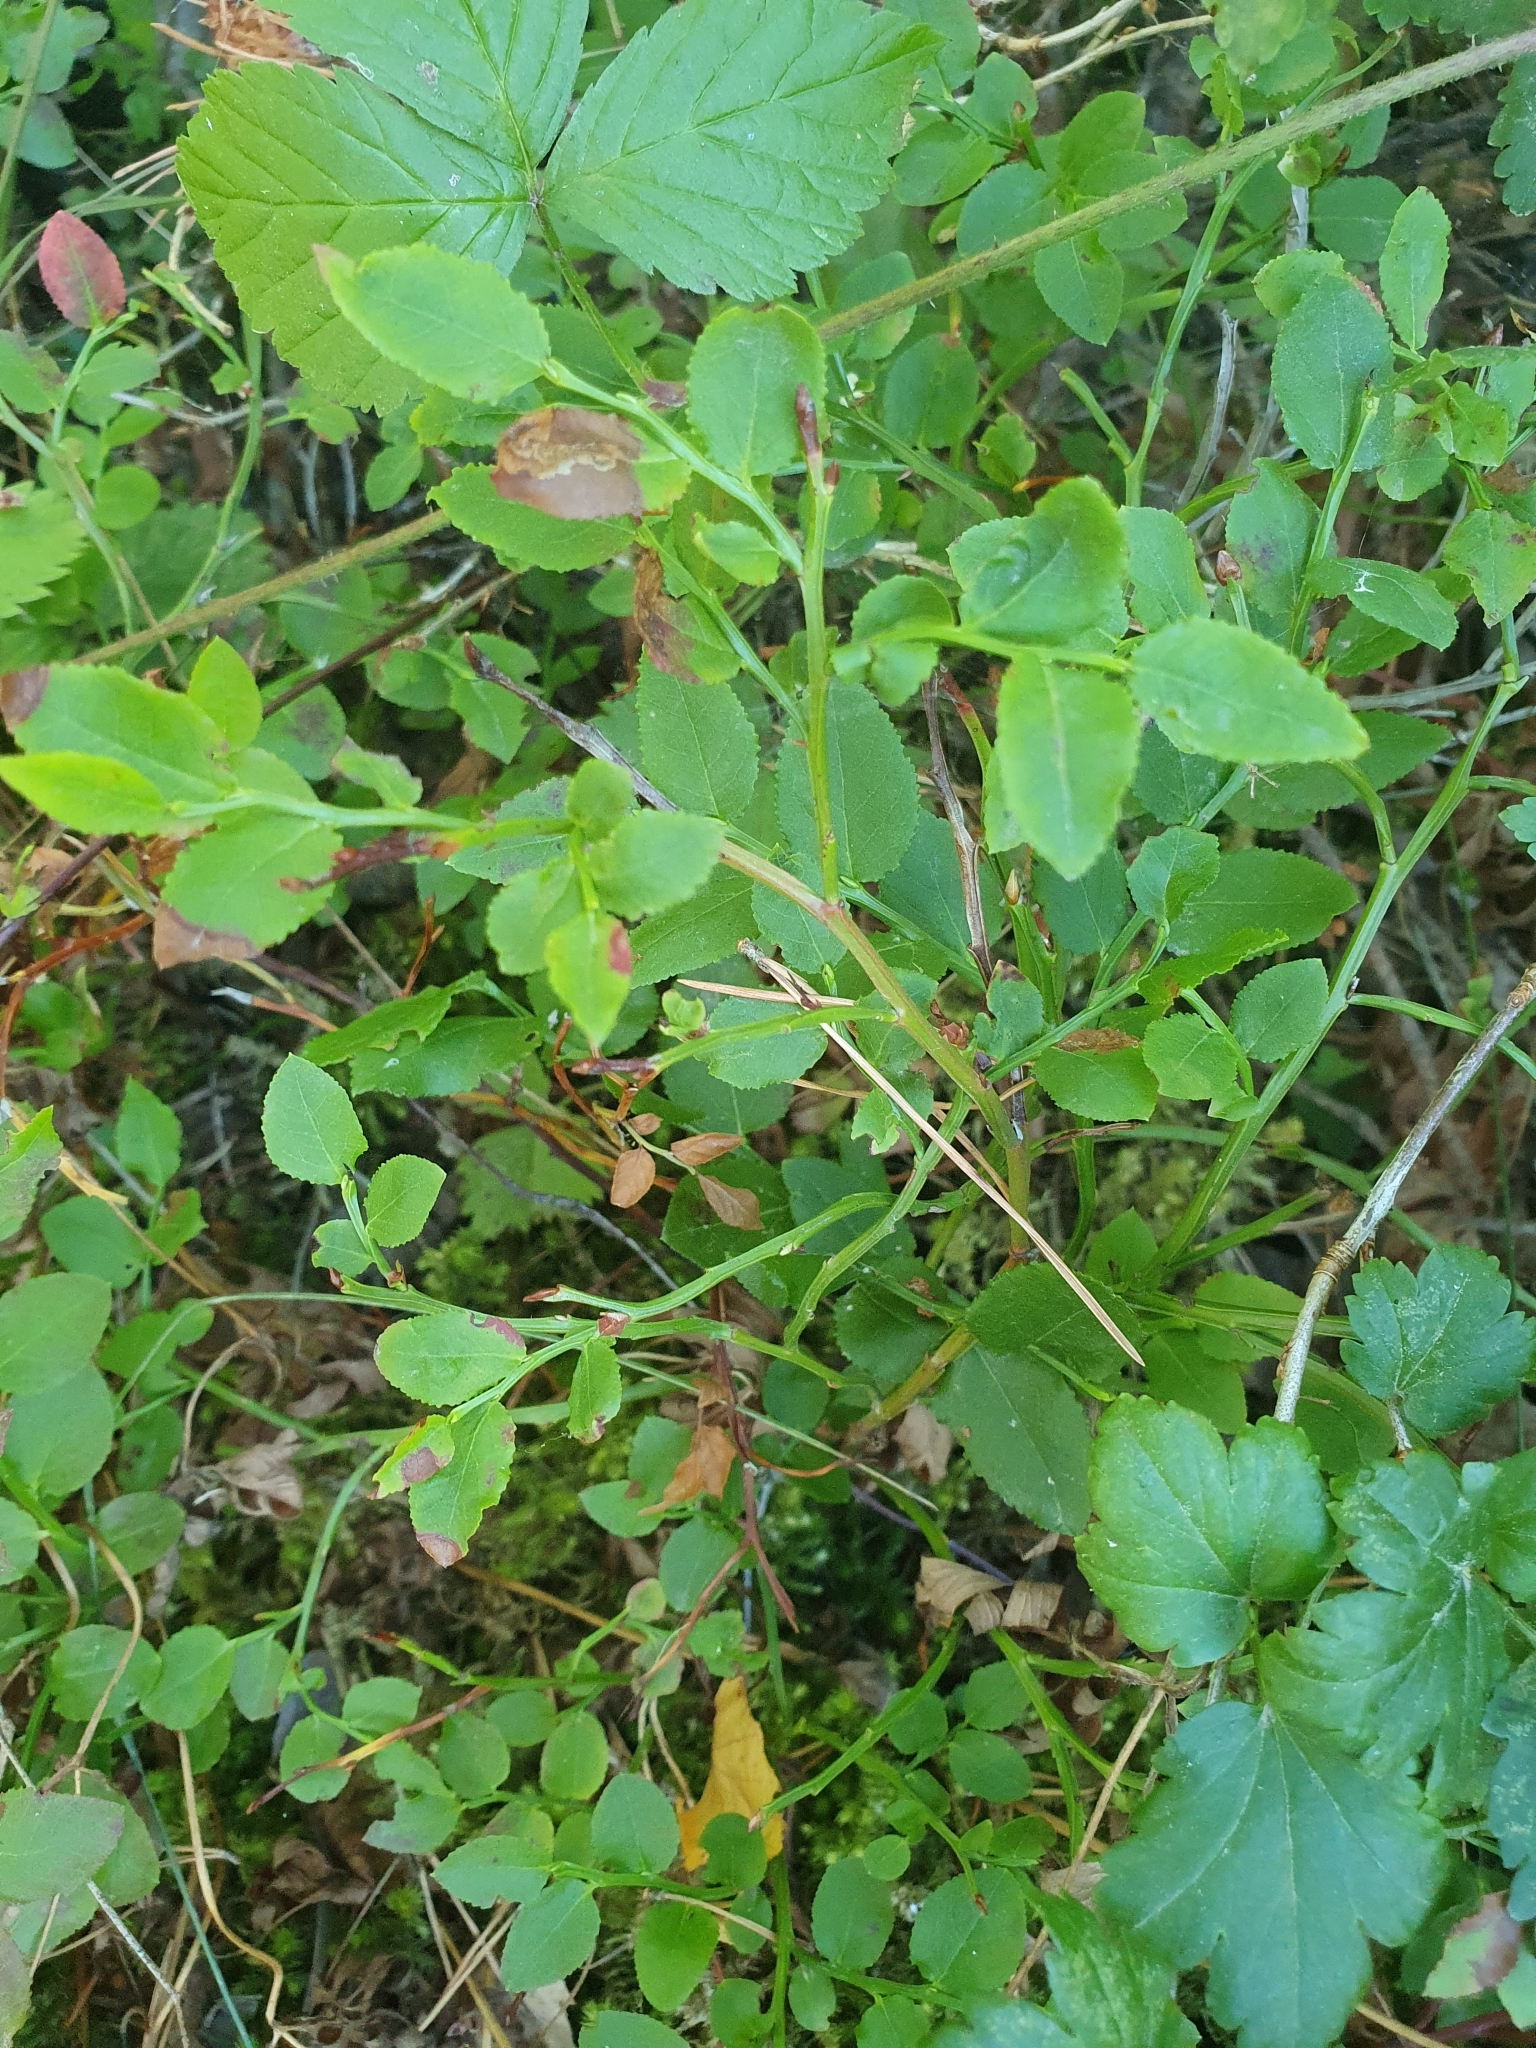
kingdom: Plantae
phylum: Tracheophyta
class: Magnoliopsida
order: Ericales
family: Ericaceae
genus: Vaccinium
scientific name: Vaccinium myrtillus
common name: Bilberry
